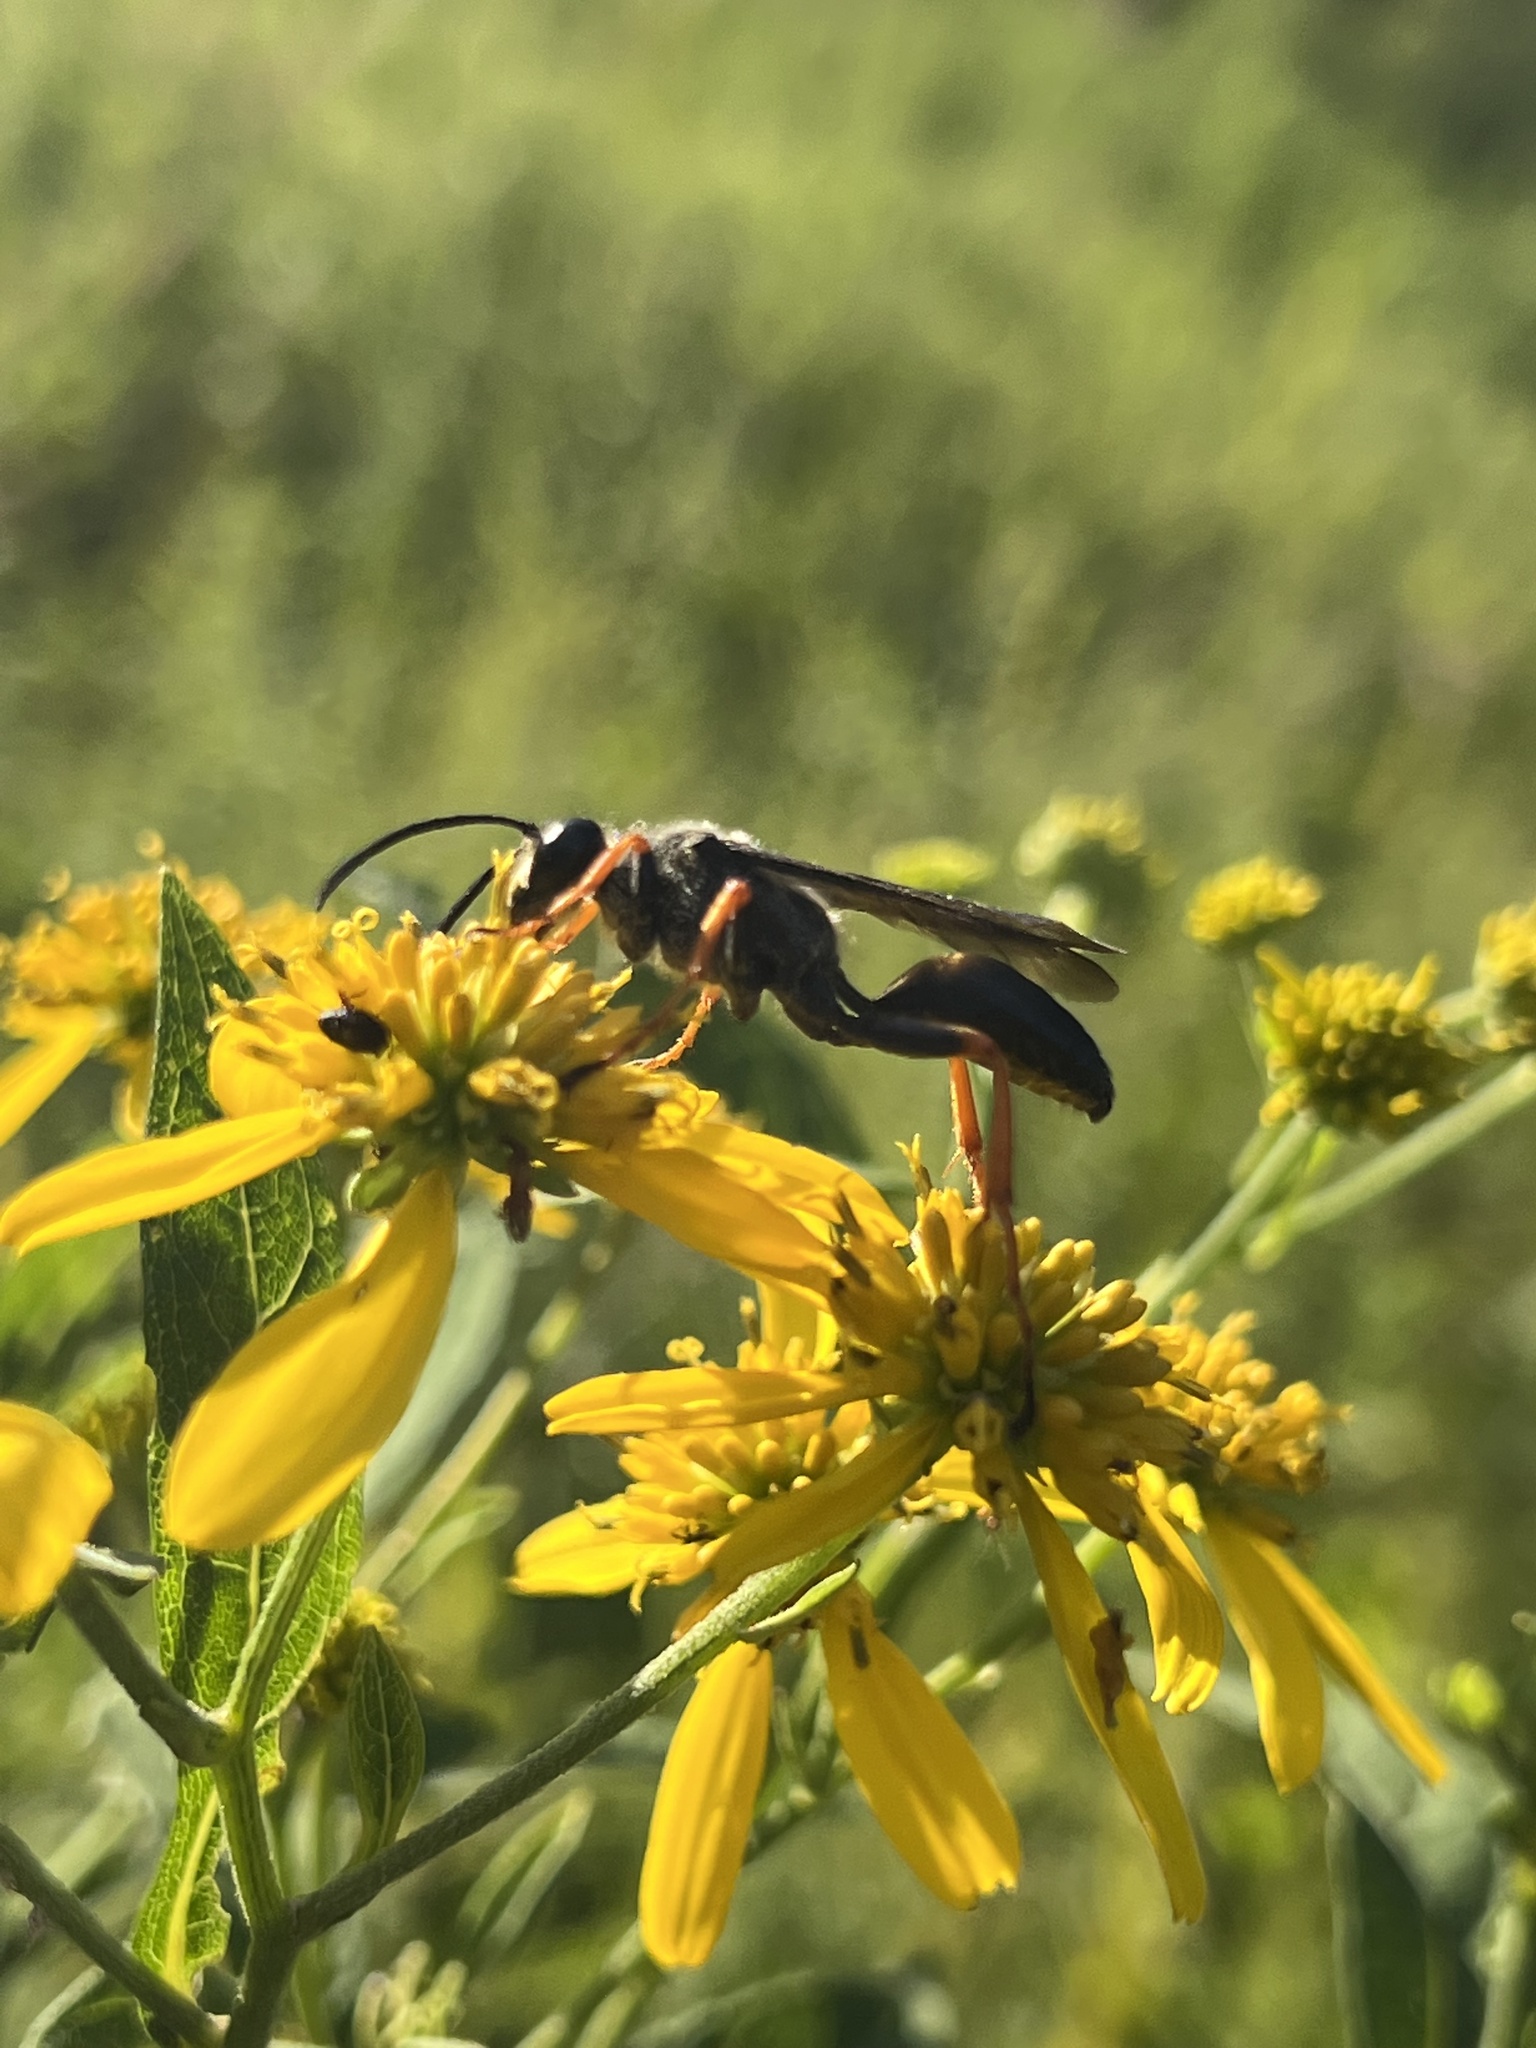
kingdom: Animalia
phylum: Arthropoda
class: Insecta
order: Hymenoptera
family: Sphecidae
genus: Sphex
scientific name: Sphex nudus
